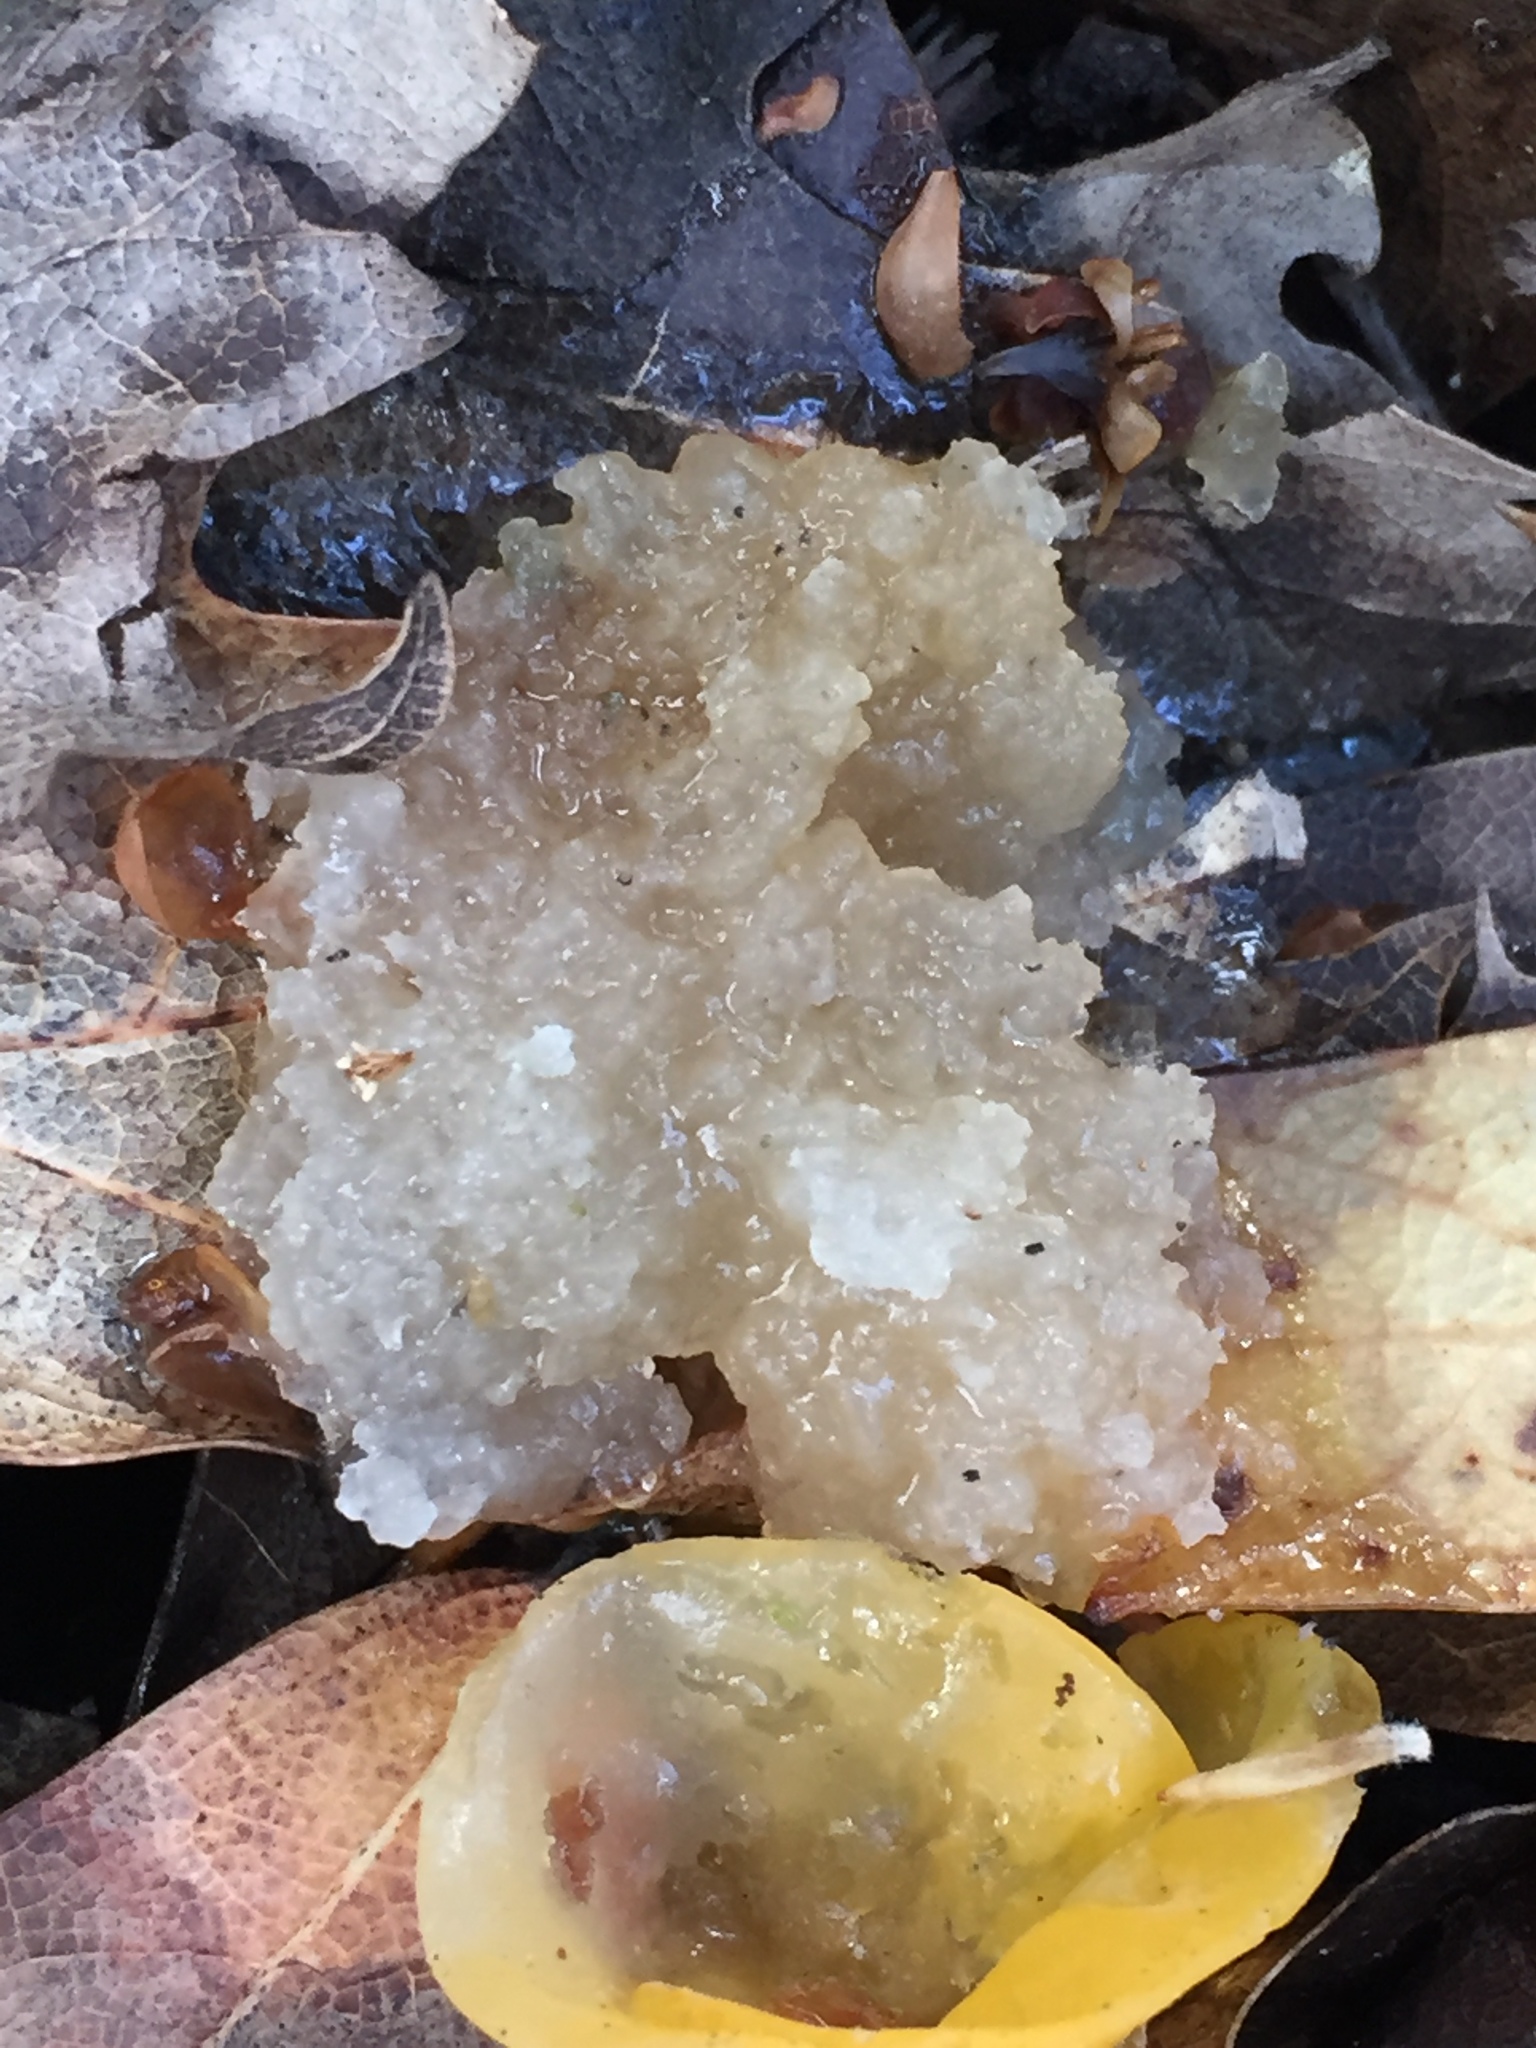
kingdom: Fungi
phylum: Basidiomycota
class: Tremellomycetes
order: Tremellales
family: Tremellaceae
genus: Tremella
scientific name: Tremella mesenterica
